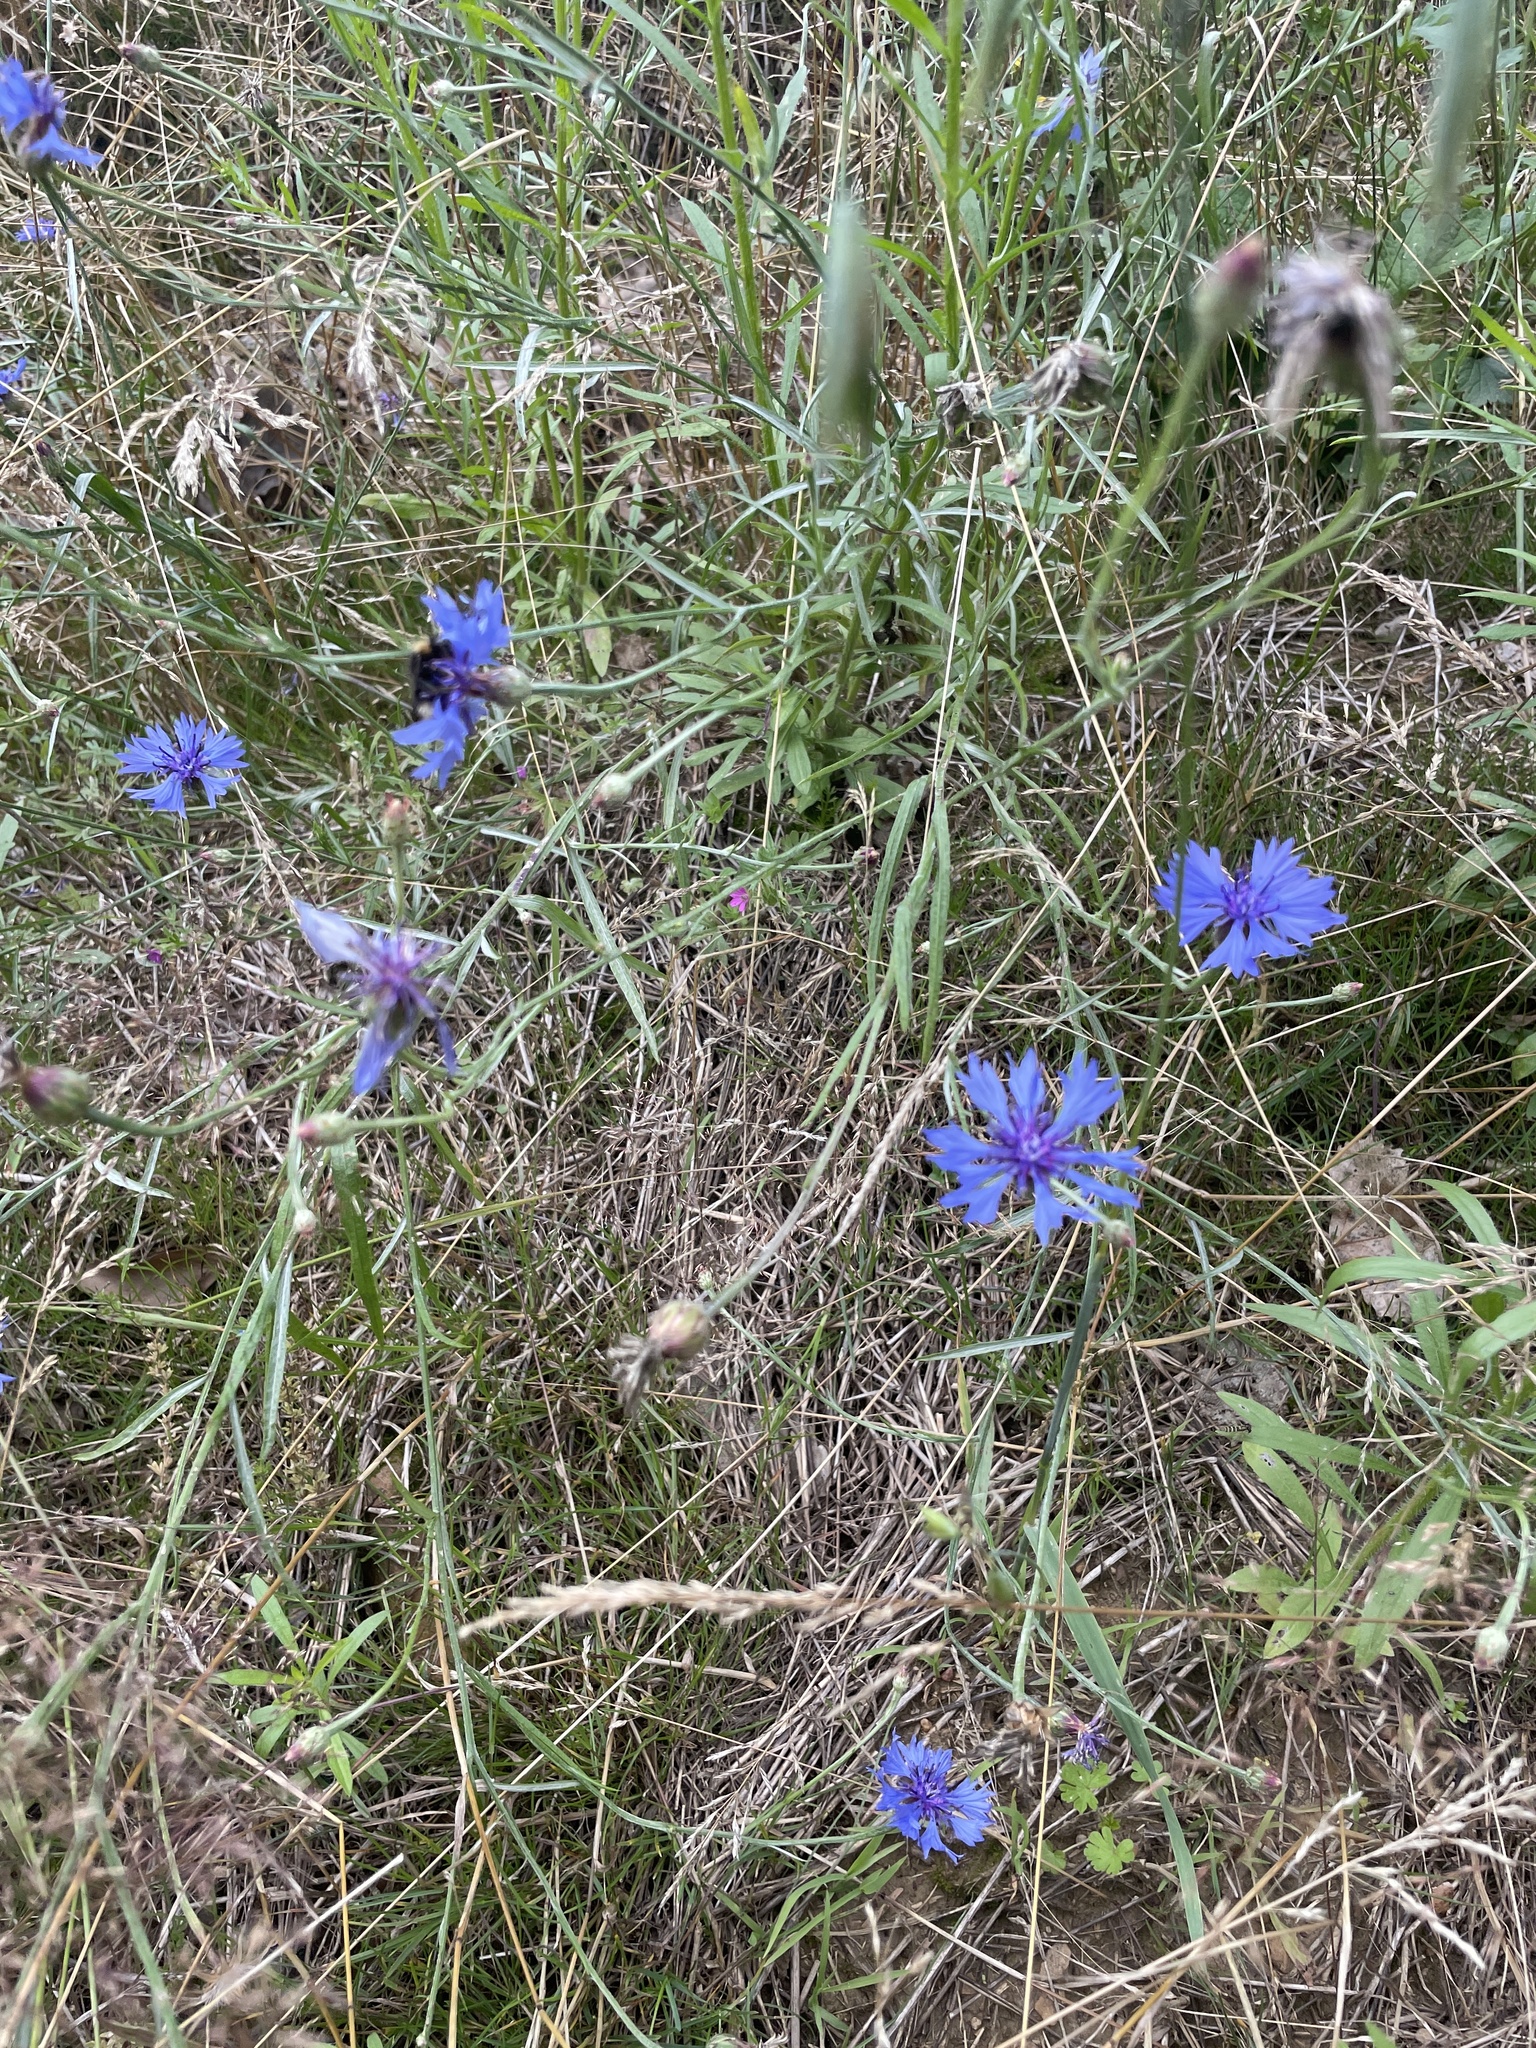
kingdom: Plantae
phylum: Tracheophyta
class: Magnoliopsida
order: Asterales
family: Asteraceae
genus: Centaurea
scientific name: Centaurea cyanus
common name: Cornflower
